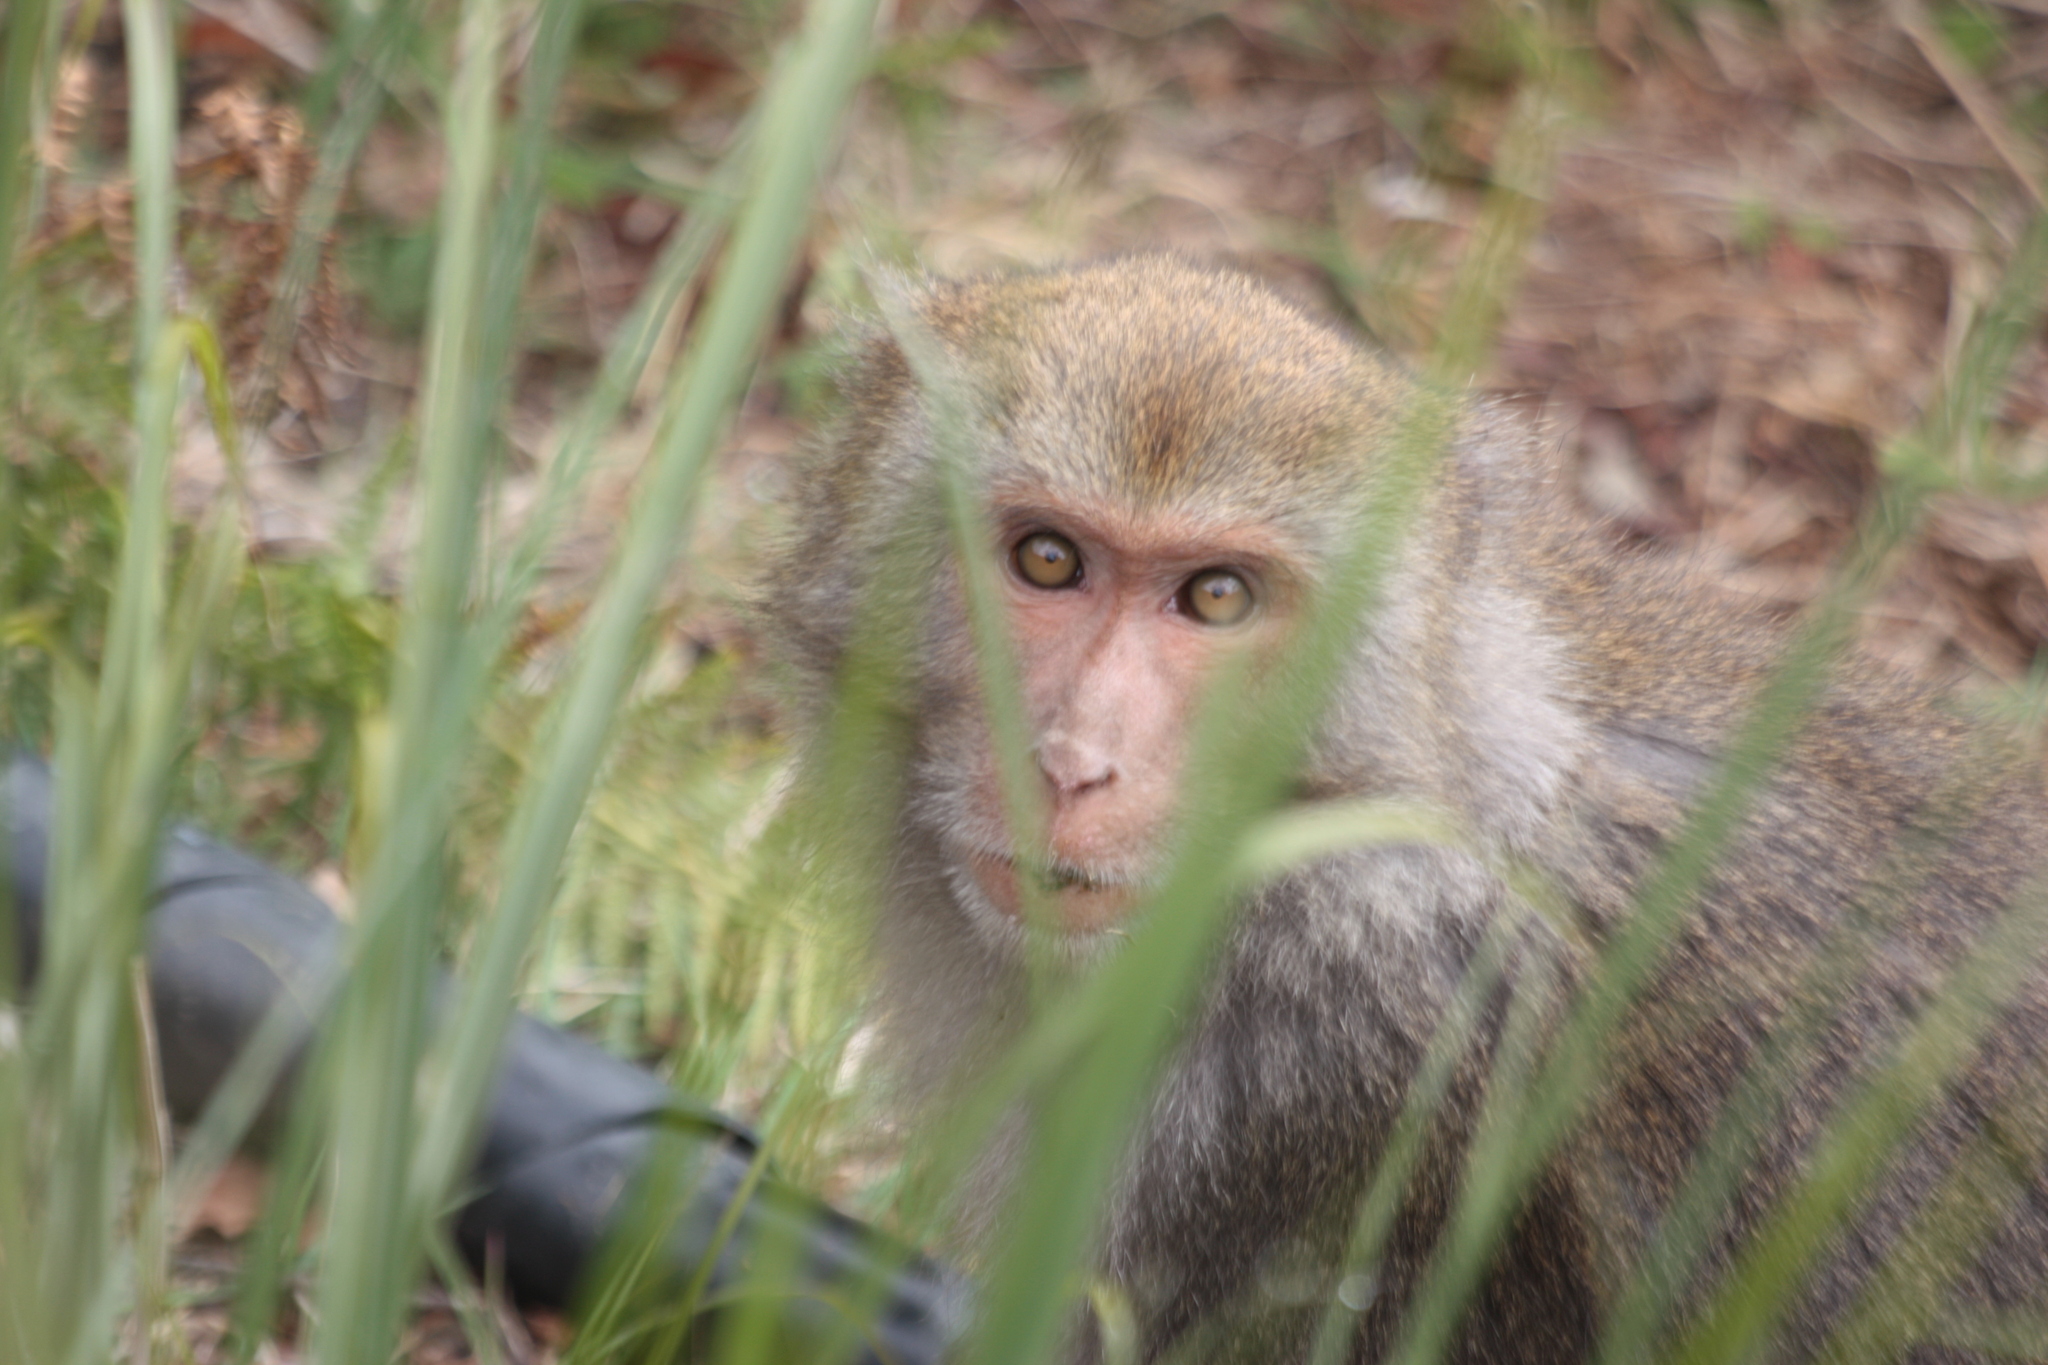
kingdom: Animalia
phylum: Chordata
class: Mammalia
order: Primates
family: Cercopithecidae
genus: Macaca
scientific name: Macaca cyclopis
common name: Formosan rock macaque
